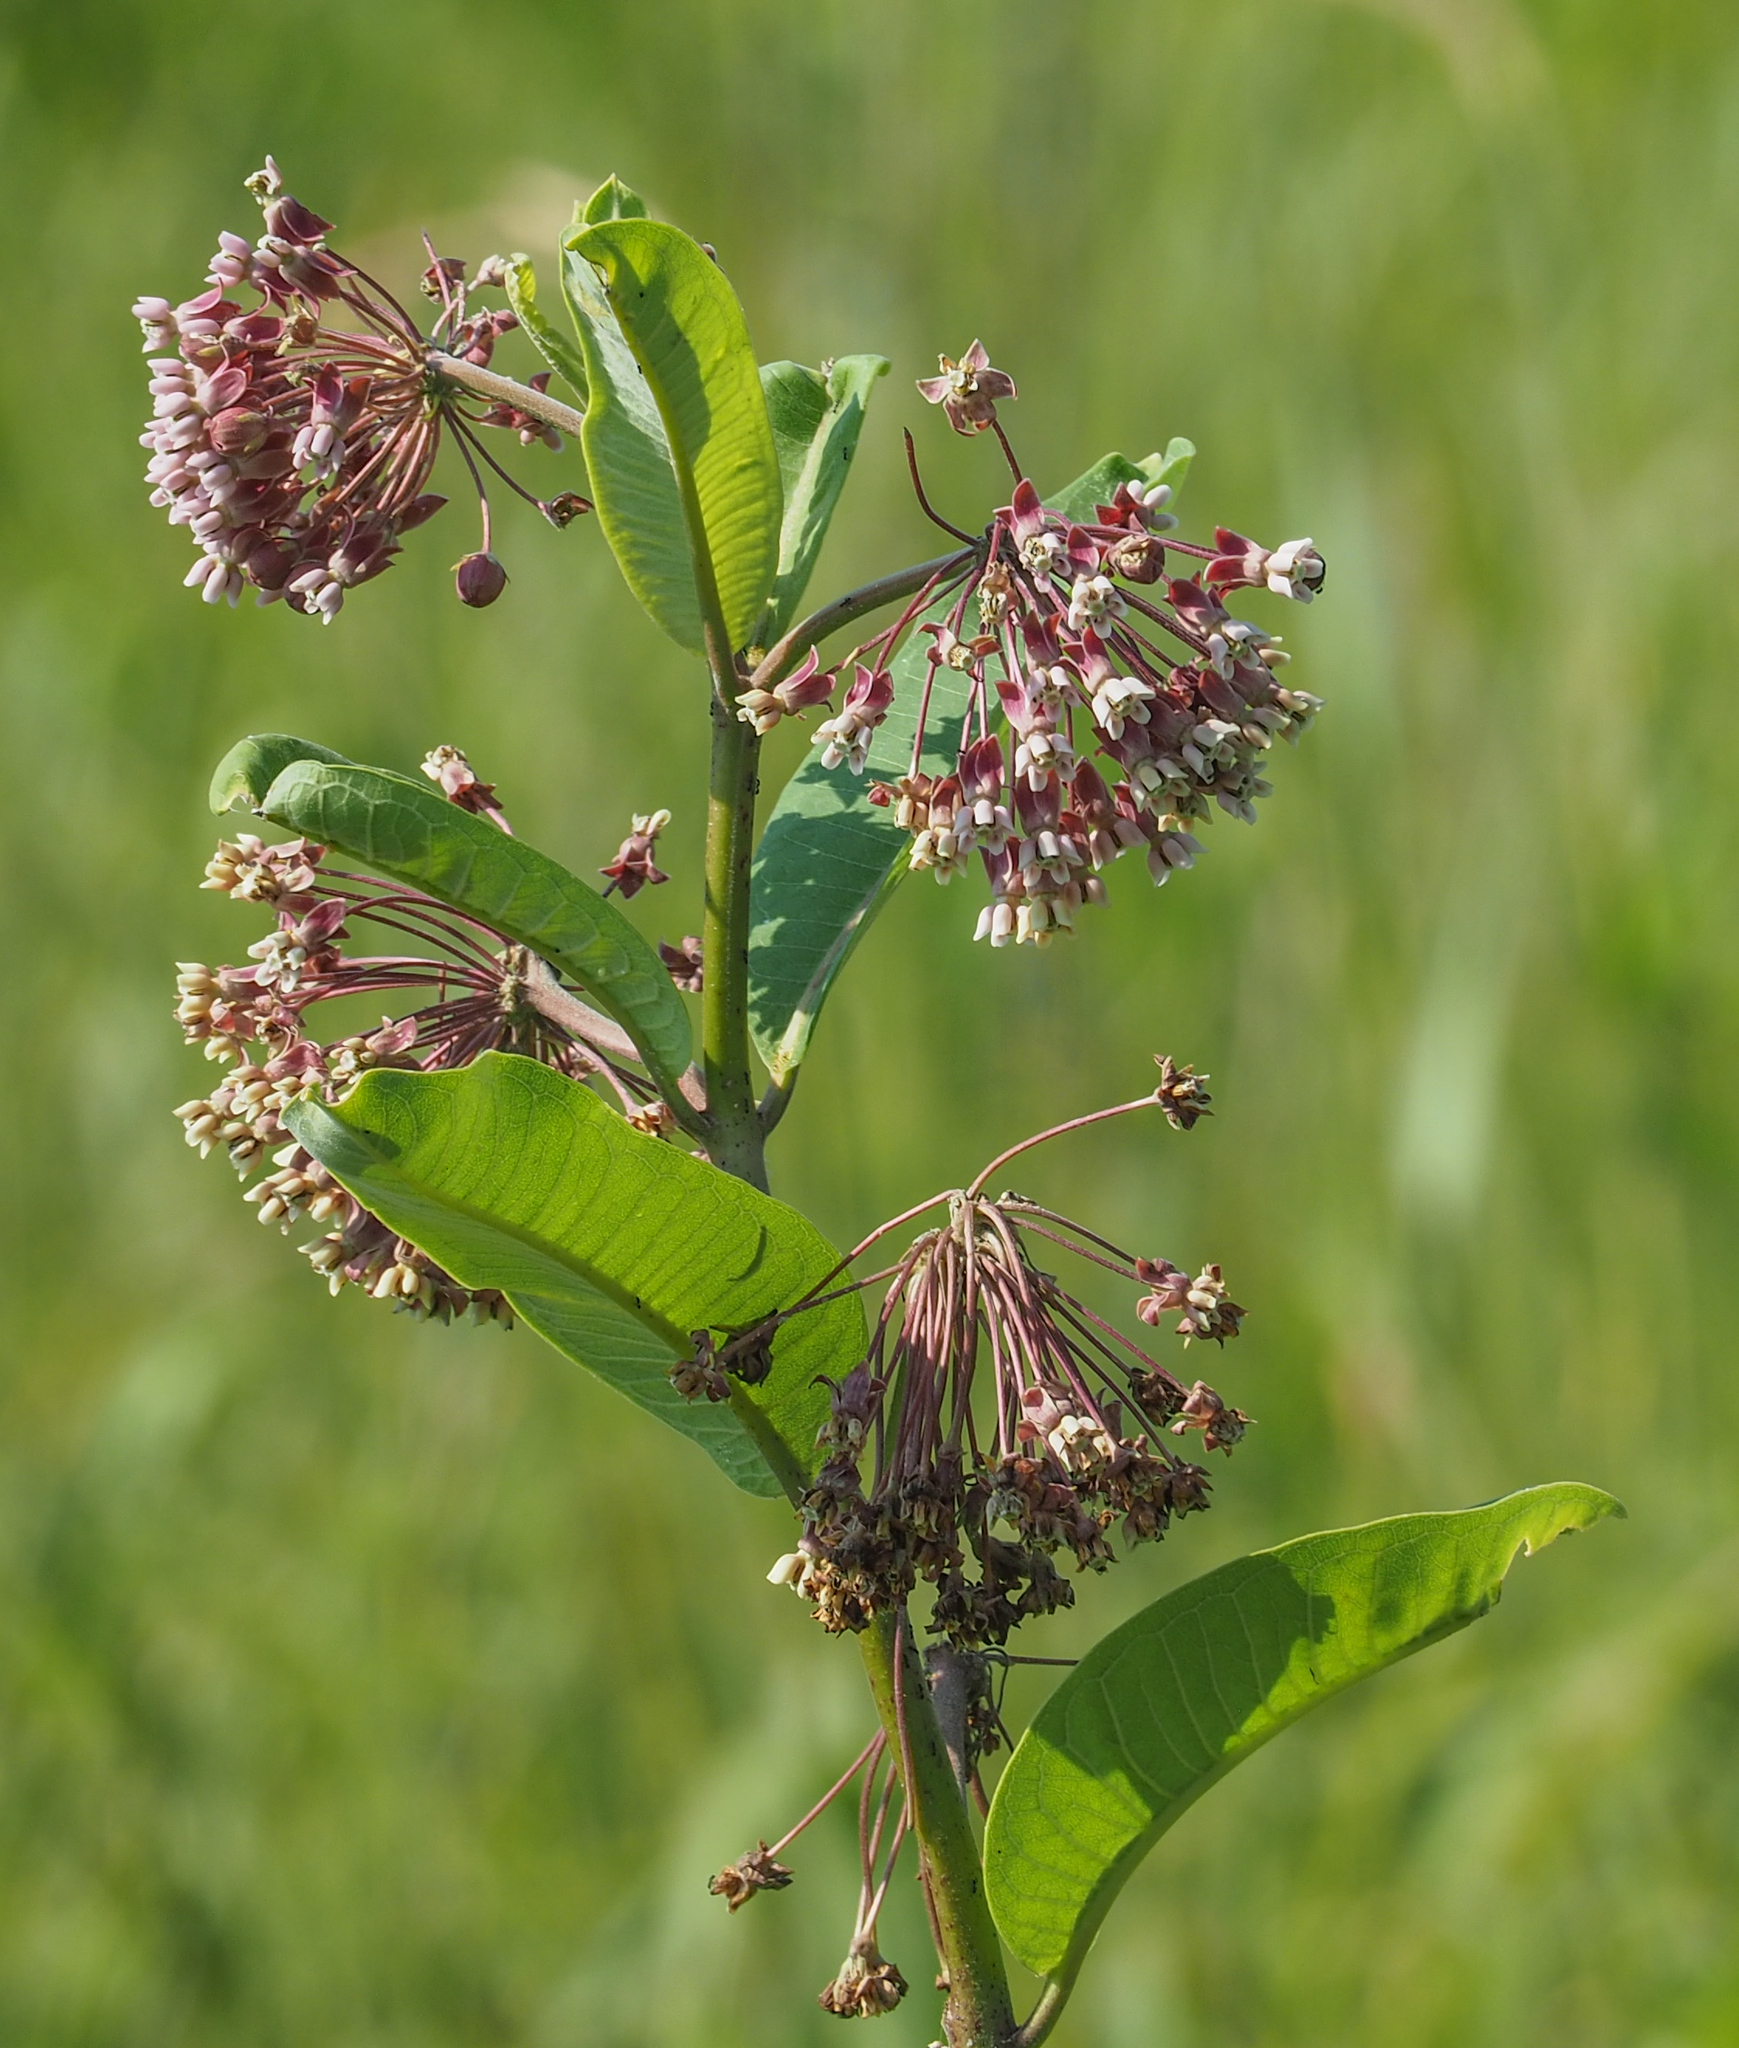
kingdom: Plantae
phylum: Tracheophyta
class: Magnoliopsida
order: Gentianales
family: Apocynaceae
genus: Asclepias
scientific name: Asclepias syriaca
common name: Common milkweed
